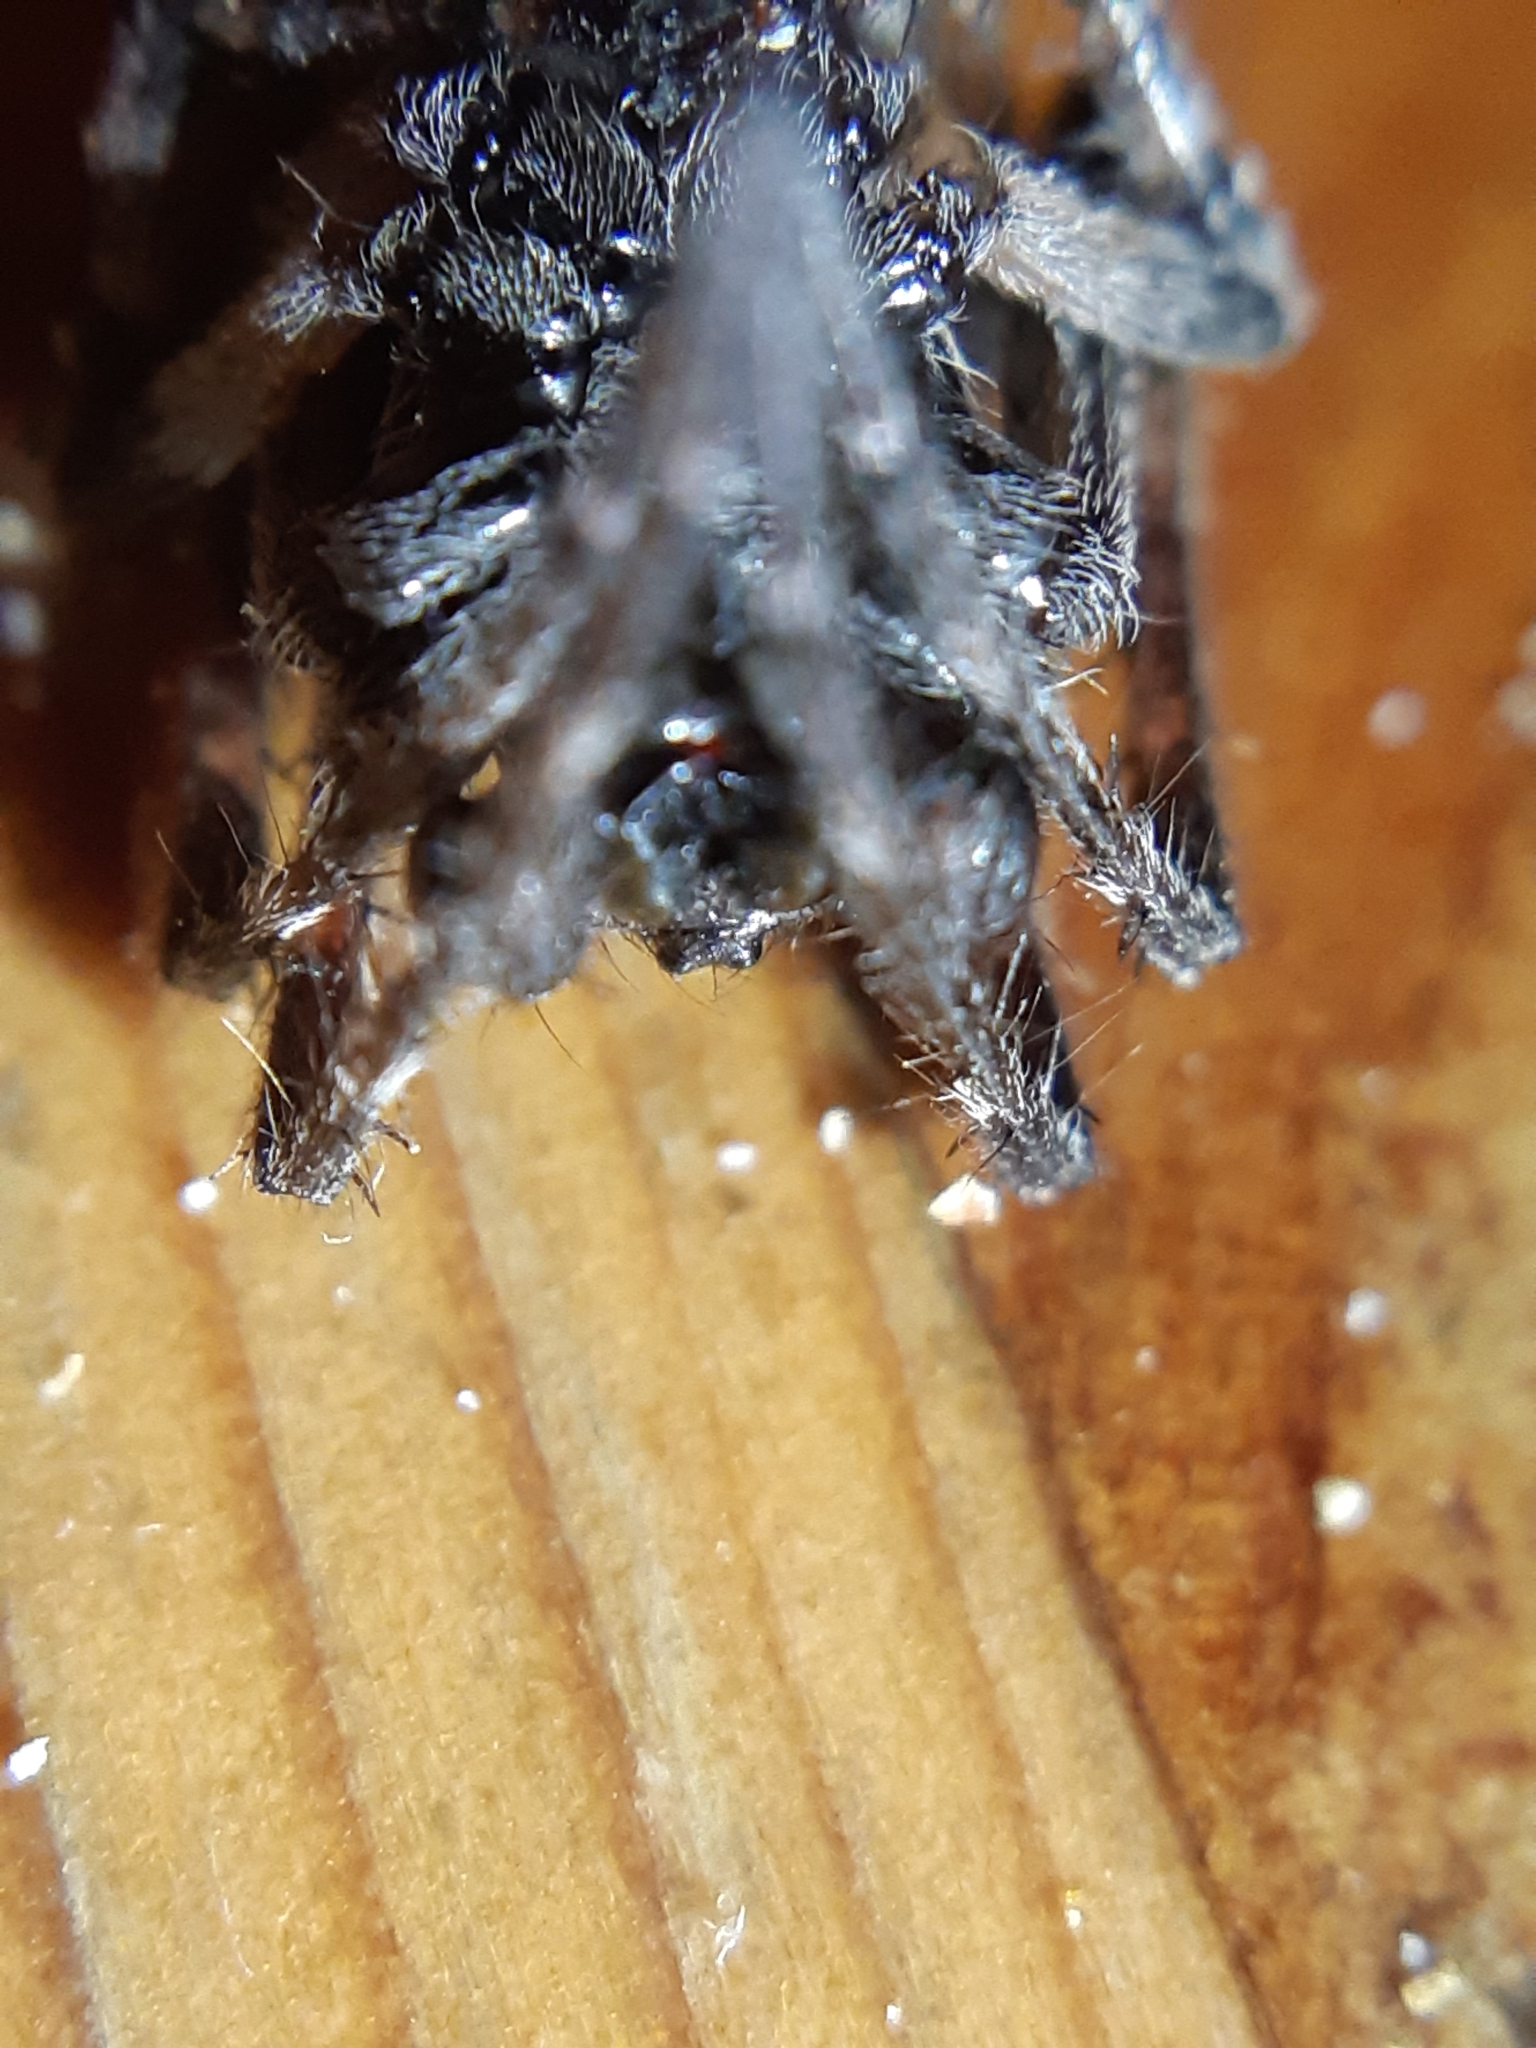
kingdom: Animalia
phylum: Arthropoda
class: Arachnida
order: Araneae
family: Araneidae
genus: Nuctenea
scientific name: Nuctenea umbratica
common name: Toad spider
